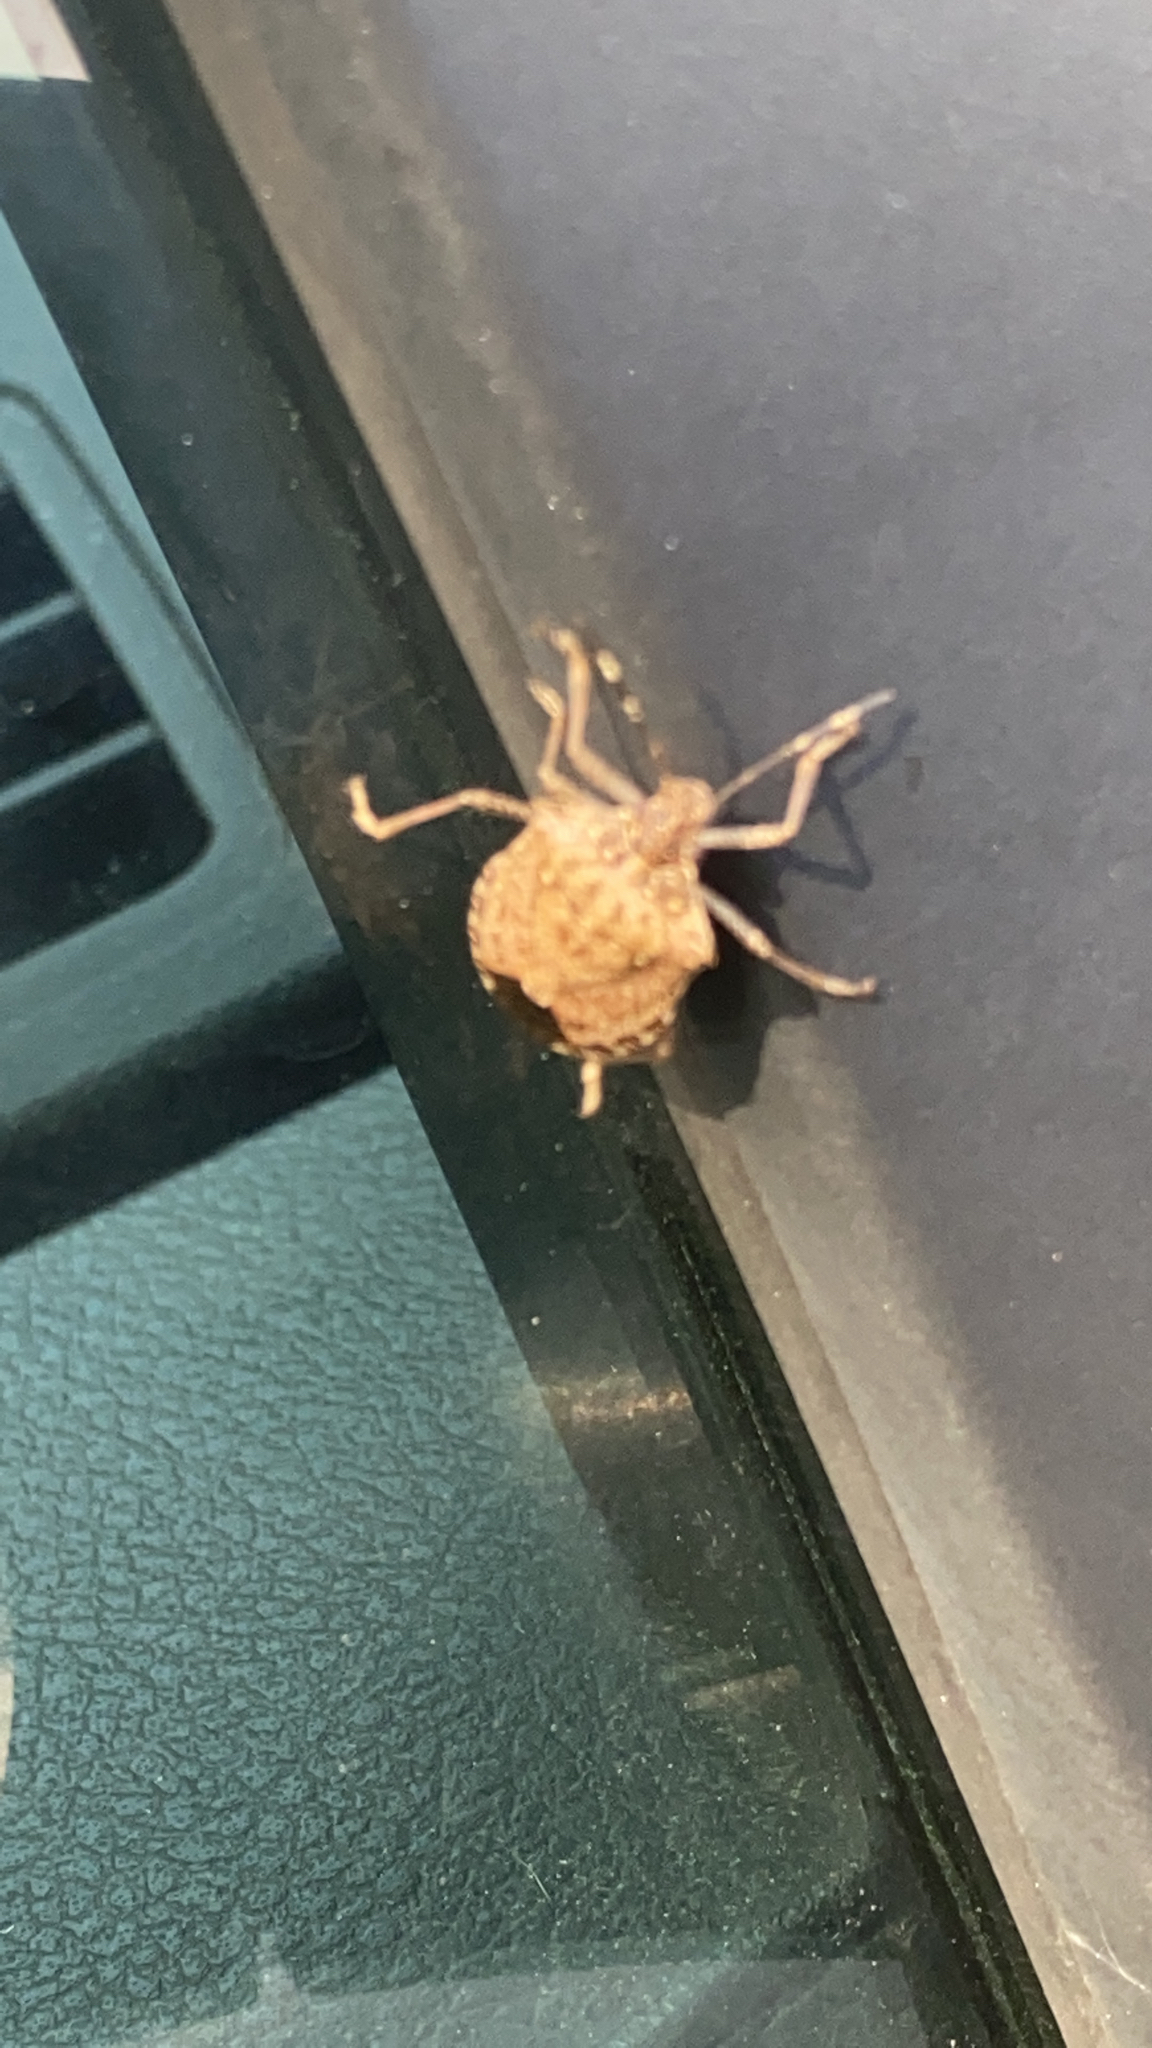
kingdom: Animalia
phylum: Arthropoda
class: Insecta
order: Hemiptera
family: Pentatomidae
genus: Halyomorpha
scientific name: Halyomorpha halys
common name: Brown marmorated stink bug
